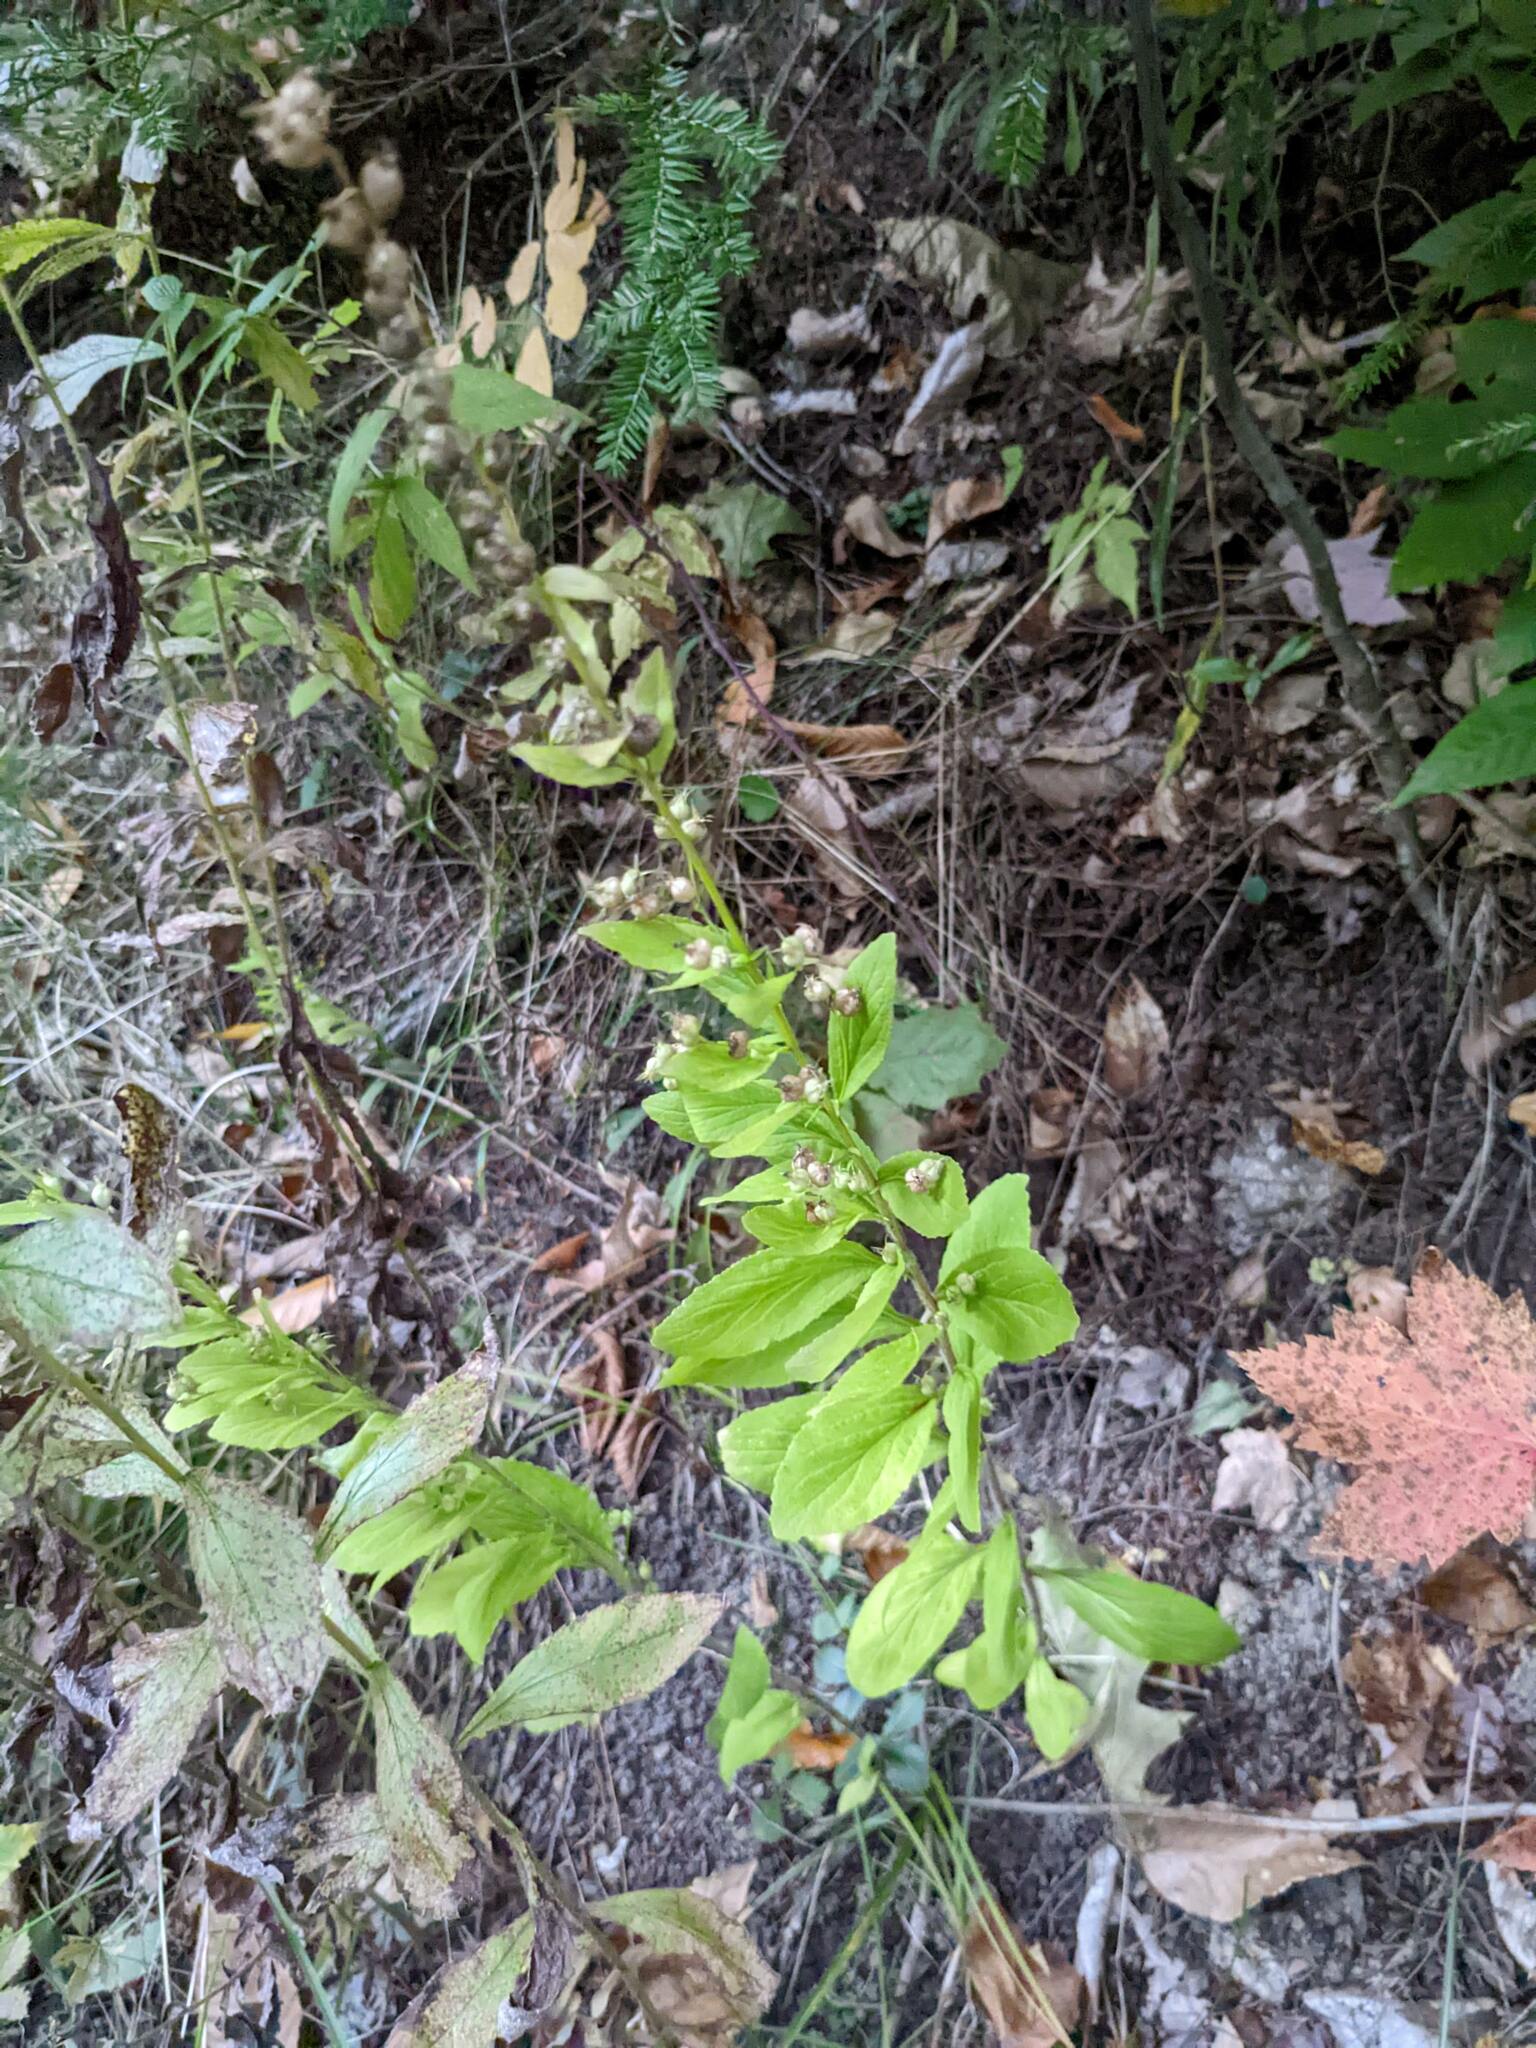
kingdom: Plantae
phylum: Tracheophyta
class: Magnoliopsida
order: Asterales
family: Campanulaceae
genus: Lobelia
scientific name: Lobelia inflata
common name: Indian tobacco
